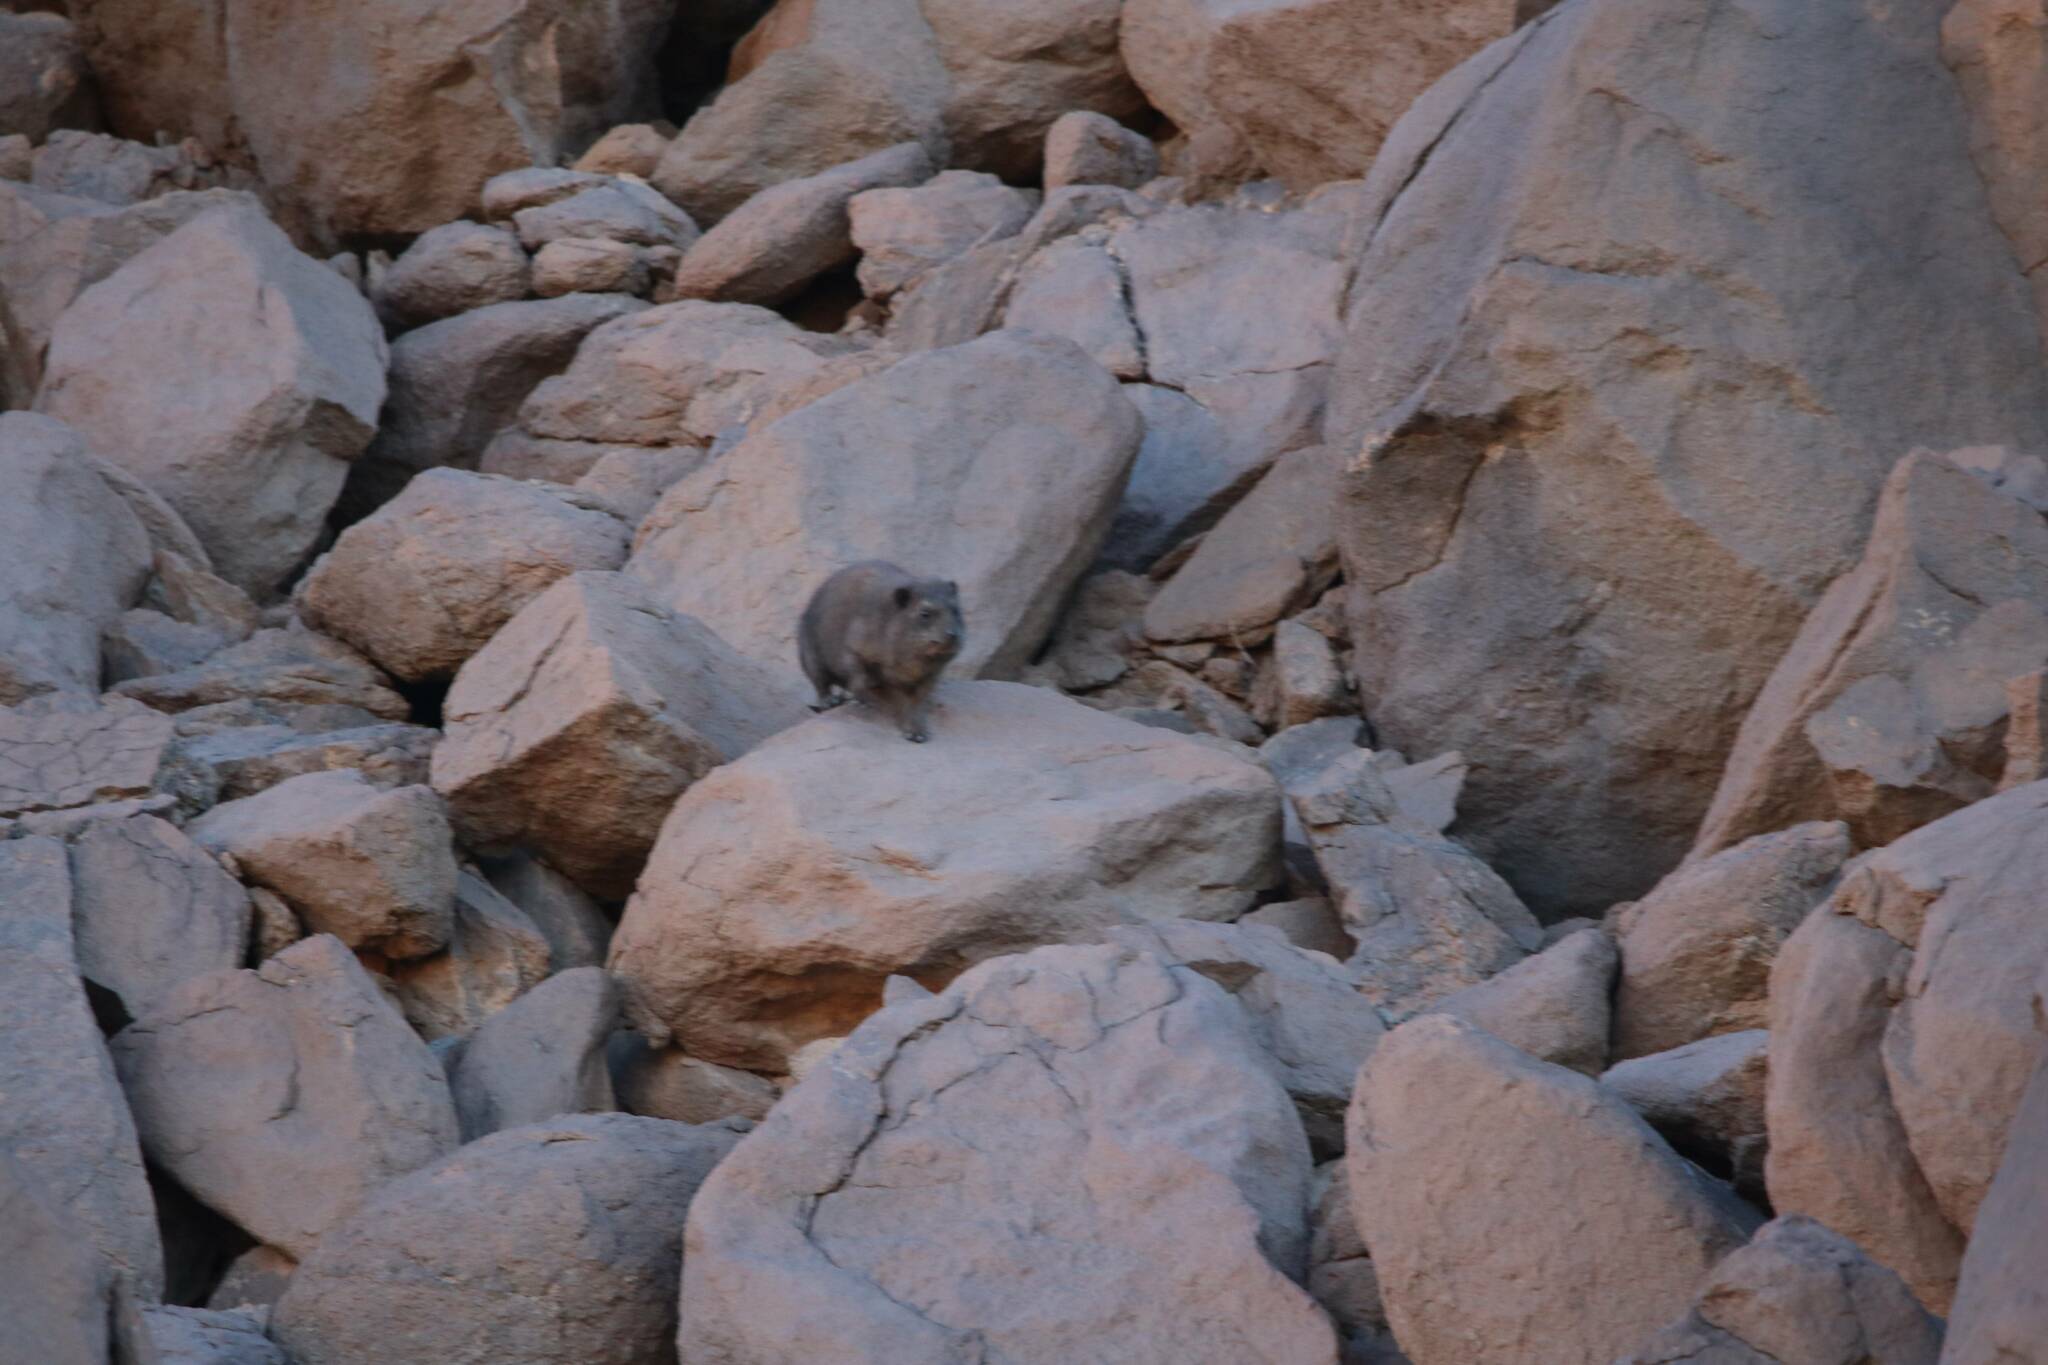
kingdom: Animalia
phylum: Chordata
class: Mammalia
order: Hyracoidea
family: Procaviidae
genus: Procavia
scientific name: Procavia capensis
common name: Rock hyrax
